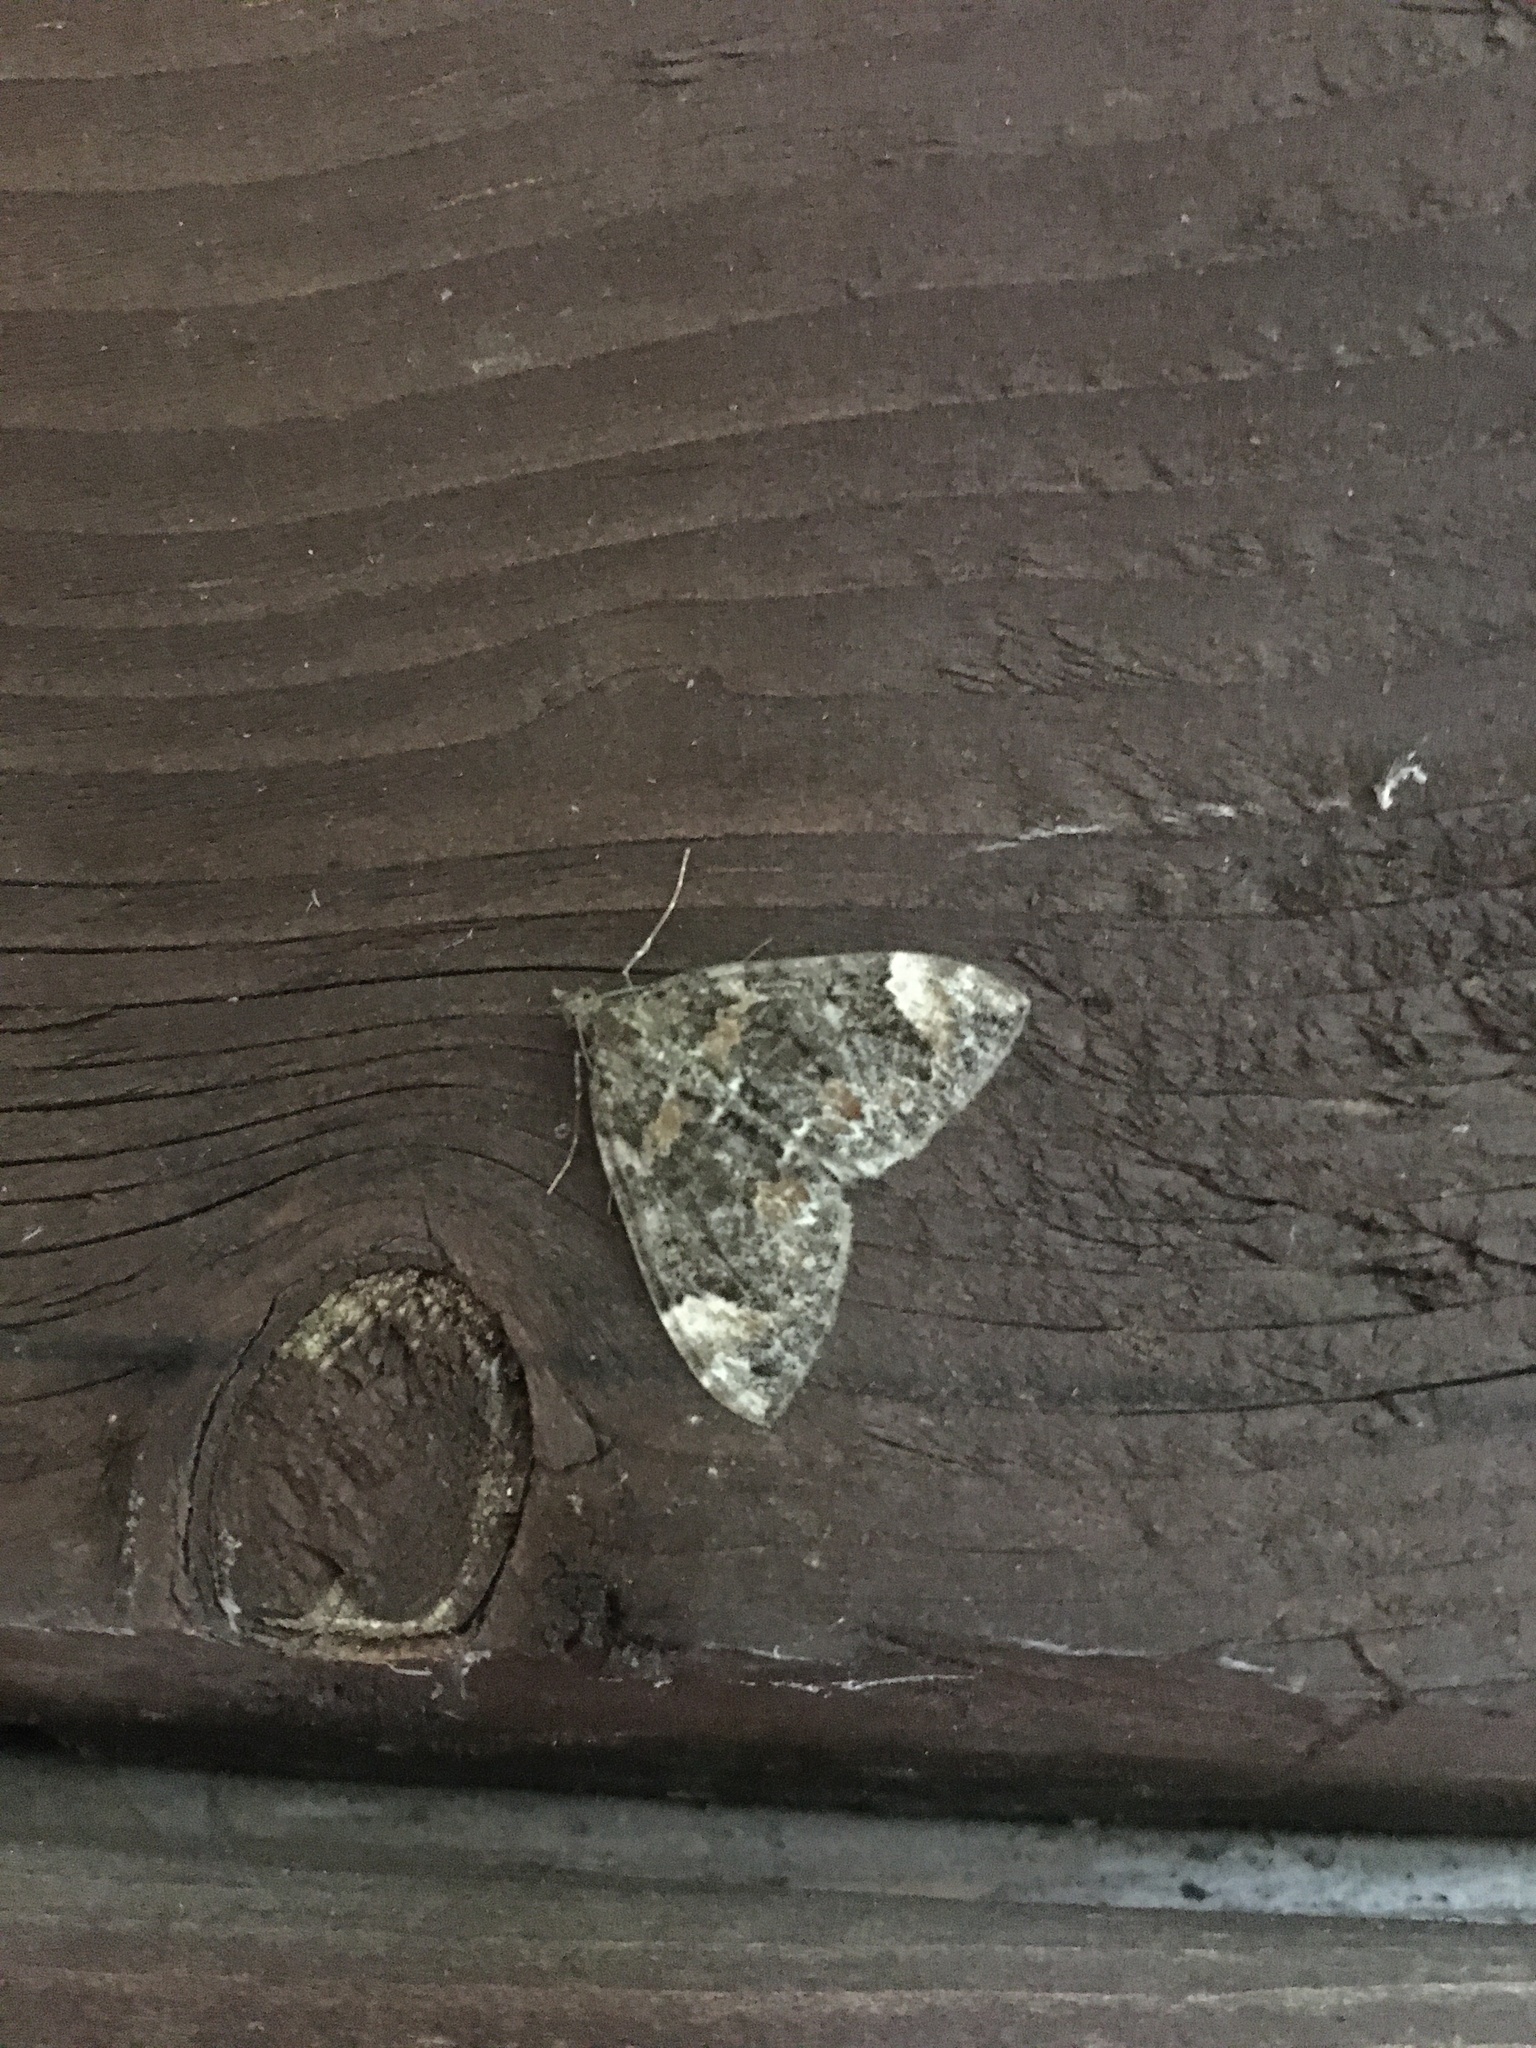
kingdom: Animalia
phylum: Arthropoda
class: Insecta
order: Lepidoptera
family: Geometridae
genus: Dysstroma
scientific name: Dysstroma citrata
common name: Dark marbled carpet
